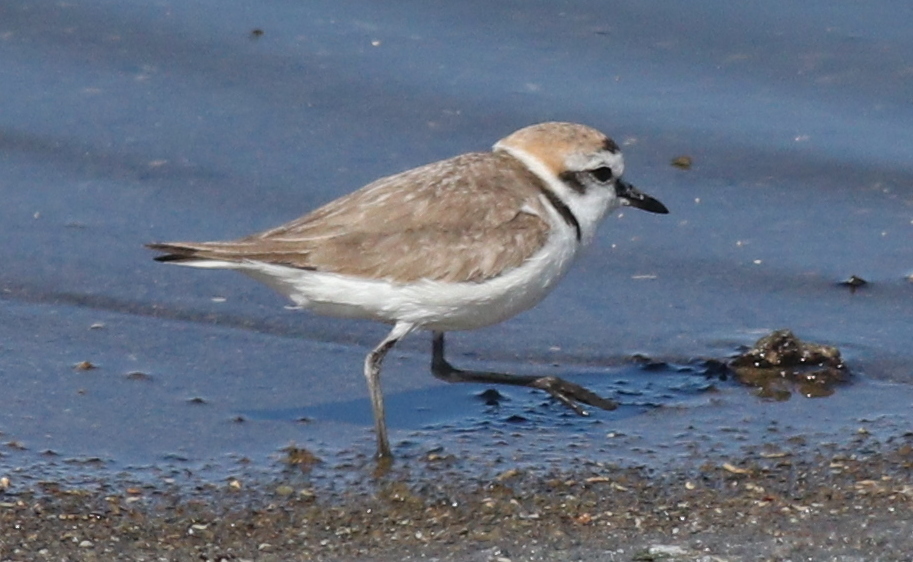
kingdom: Animalia
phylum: Chordata
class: Aves
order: Charadriiformes
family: Charadriidae
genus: Charadrius
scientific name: Charadrius alexandrinus
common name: Kentish plover
